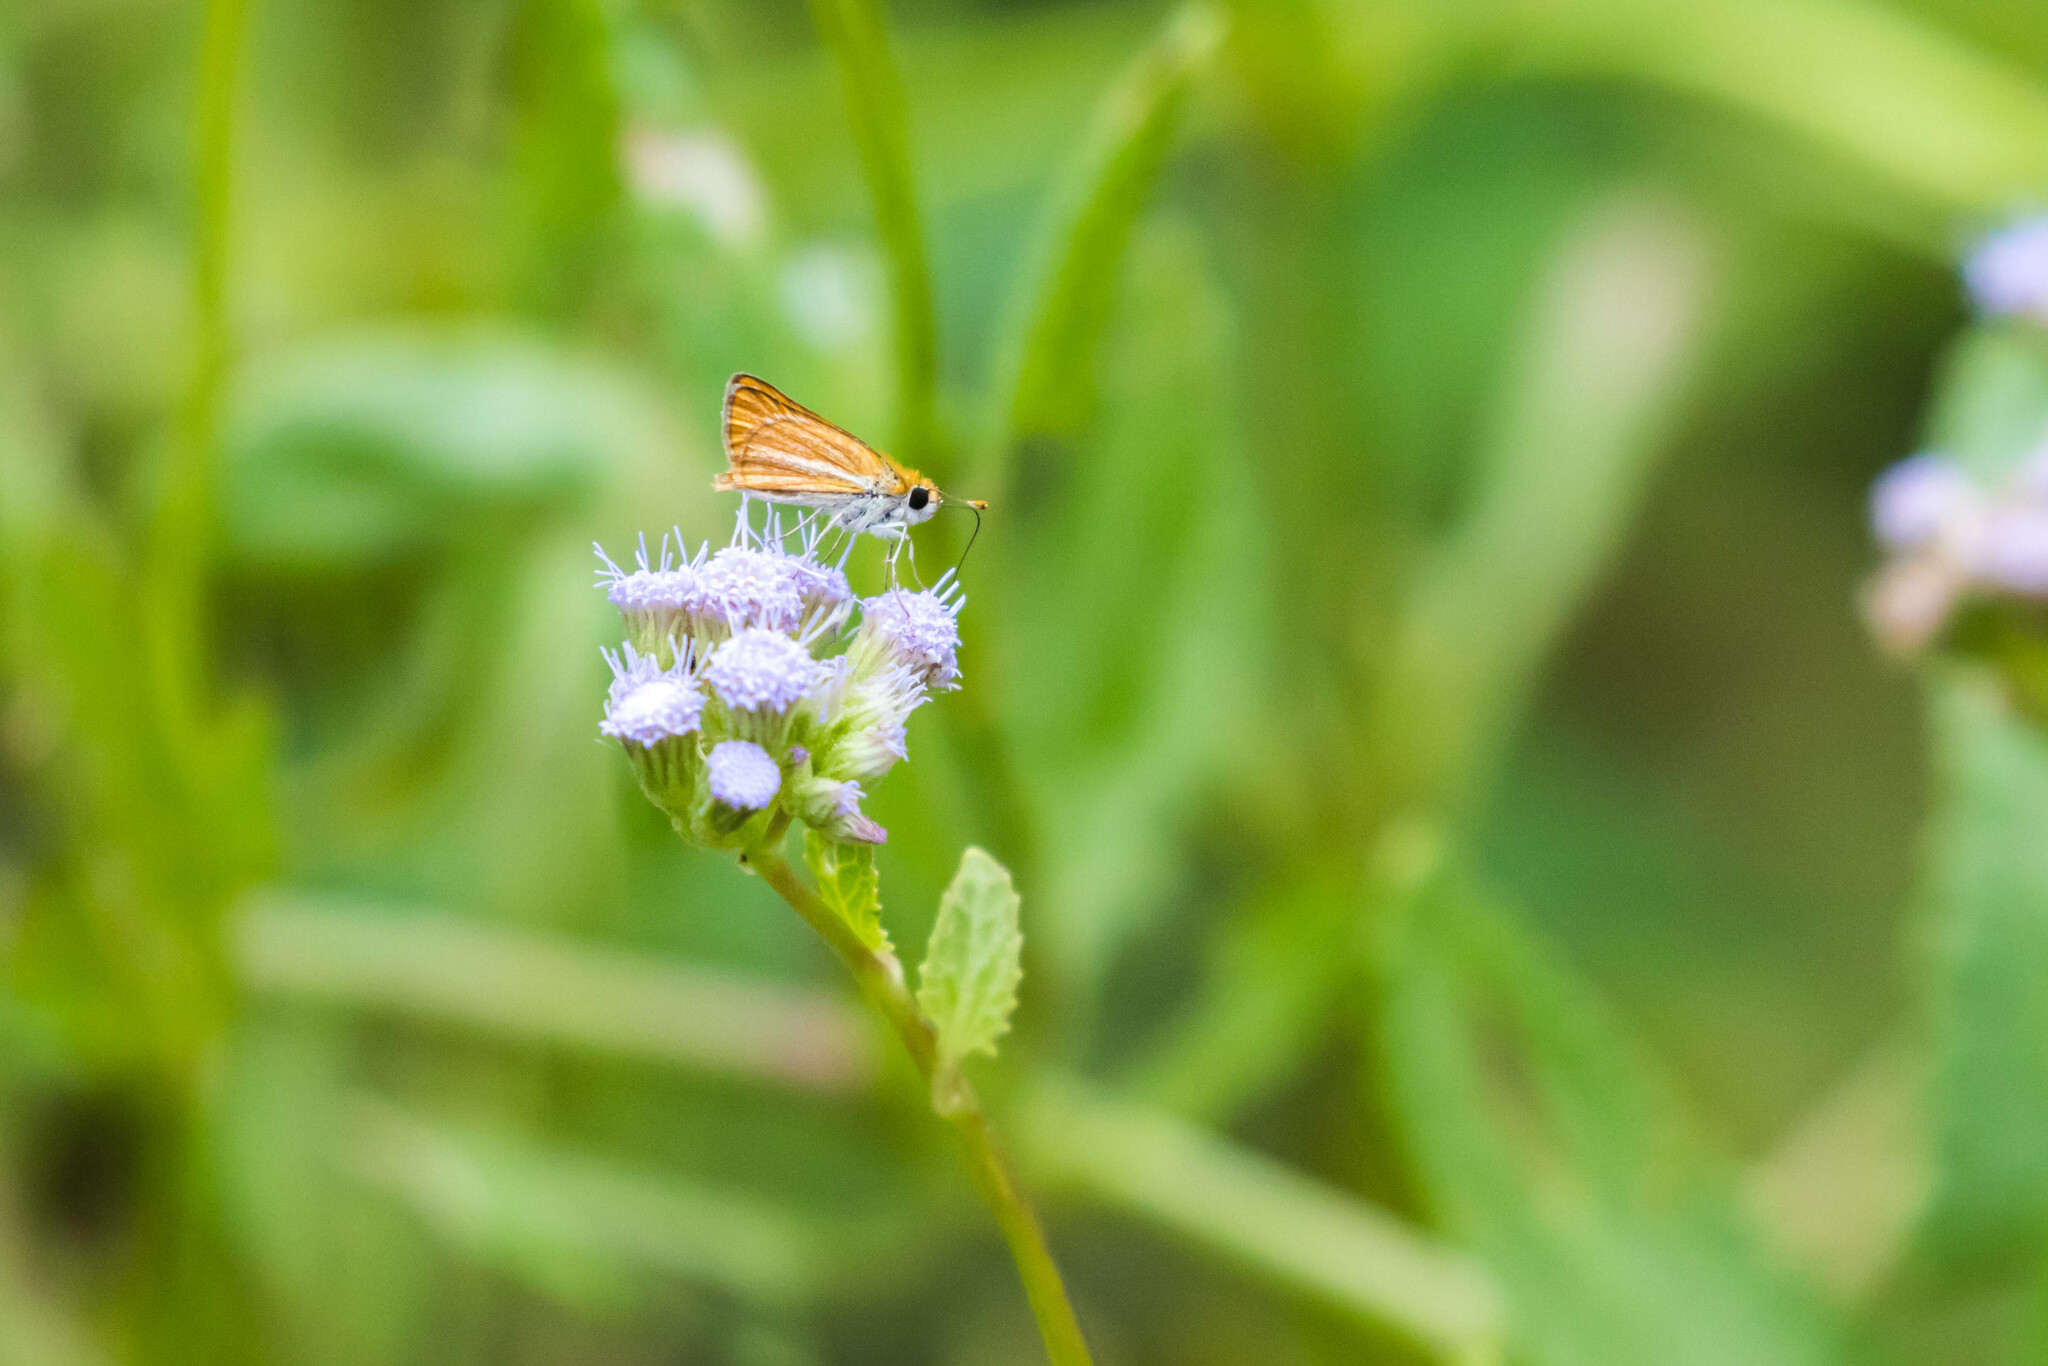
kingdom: Animalia
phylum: Arthropoda
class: Insecta
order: Lepidoptera
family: Hesperiidae
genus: Copaeodes
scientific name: Copaeodes minima
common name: Southern skipperling
